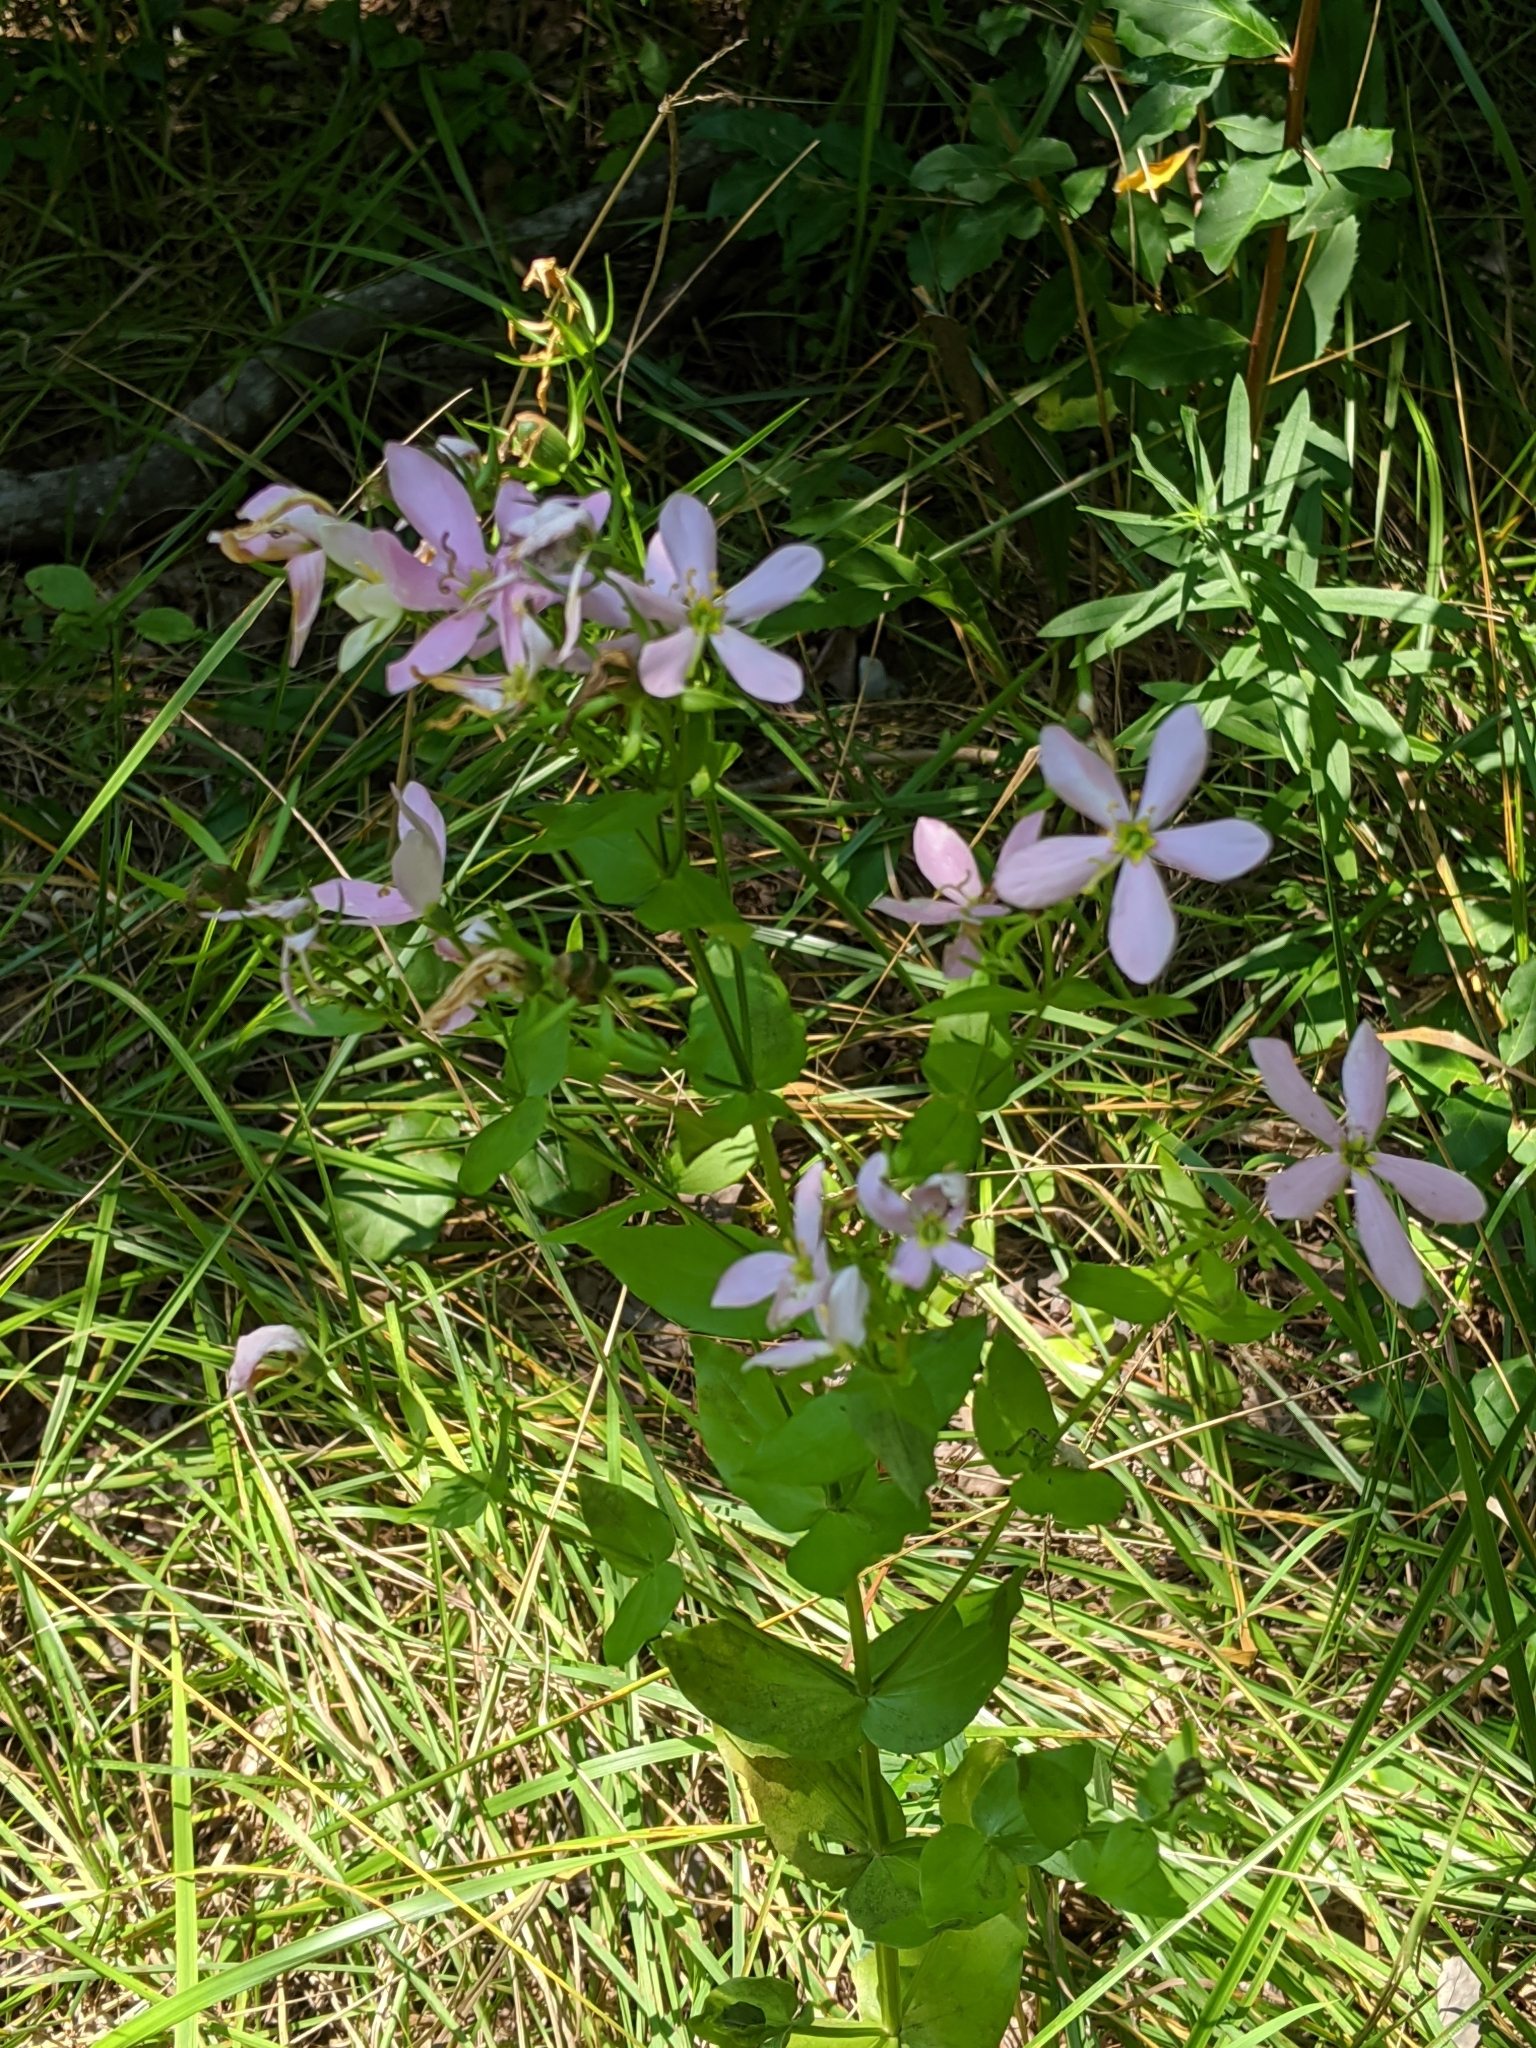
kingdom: Plantae
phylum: Tracheophyta
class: Magnoliopsida
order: Gentianales
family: Gentianaceae
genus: Sabatia
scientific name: Sabatia angularis
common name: Rose-pink
